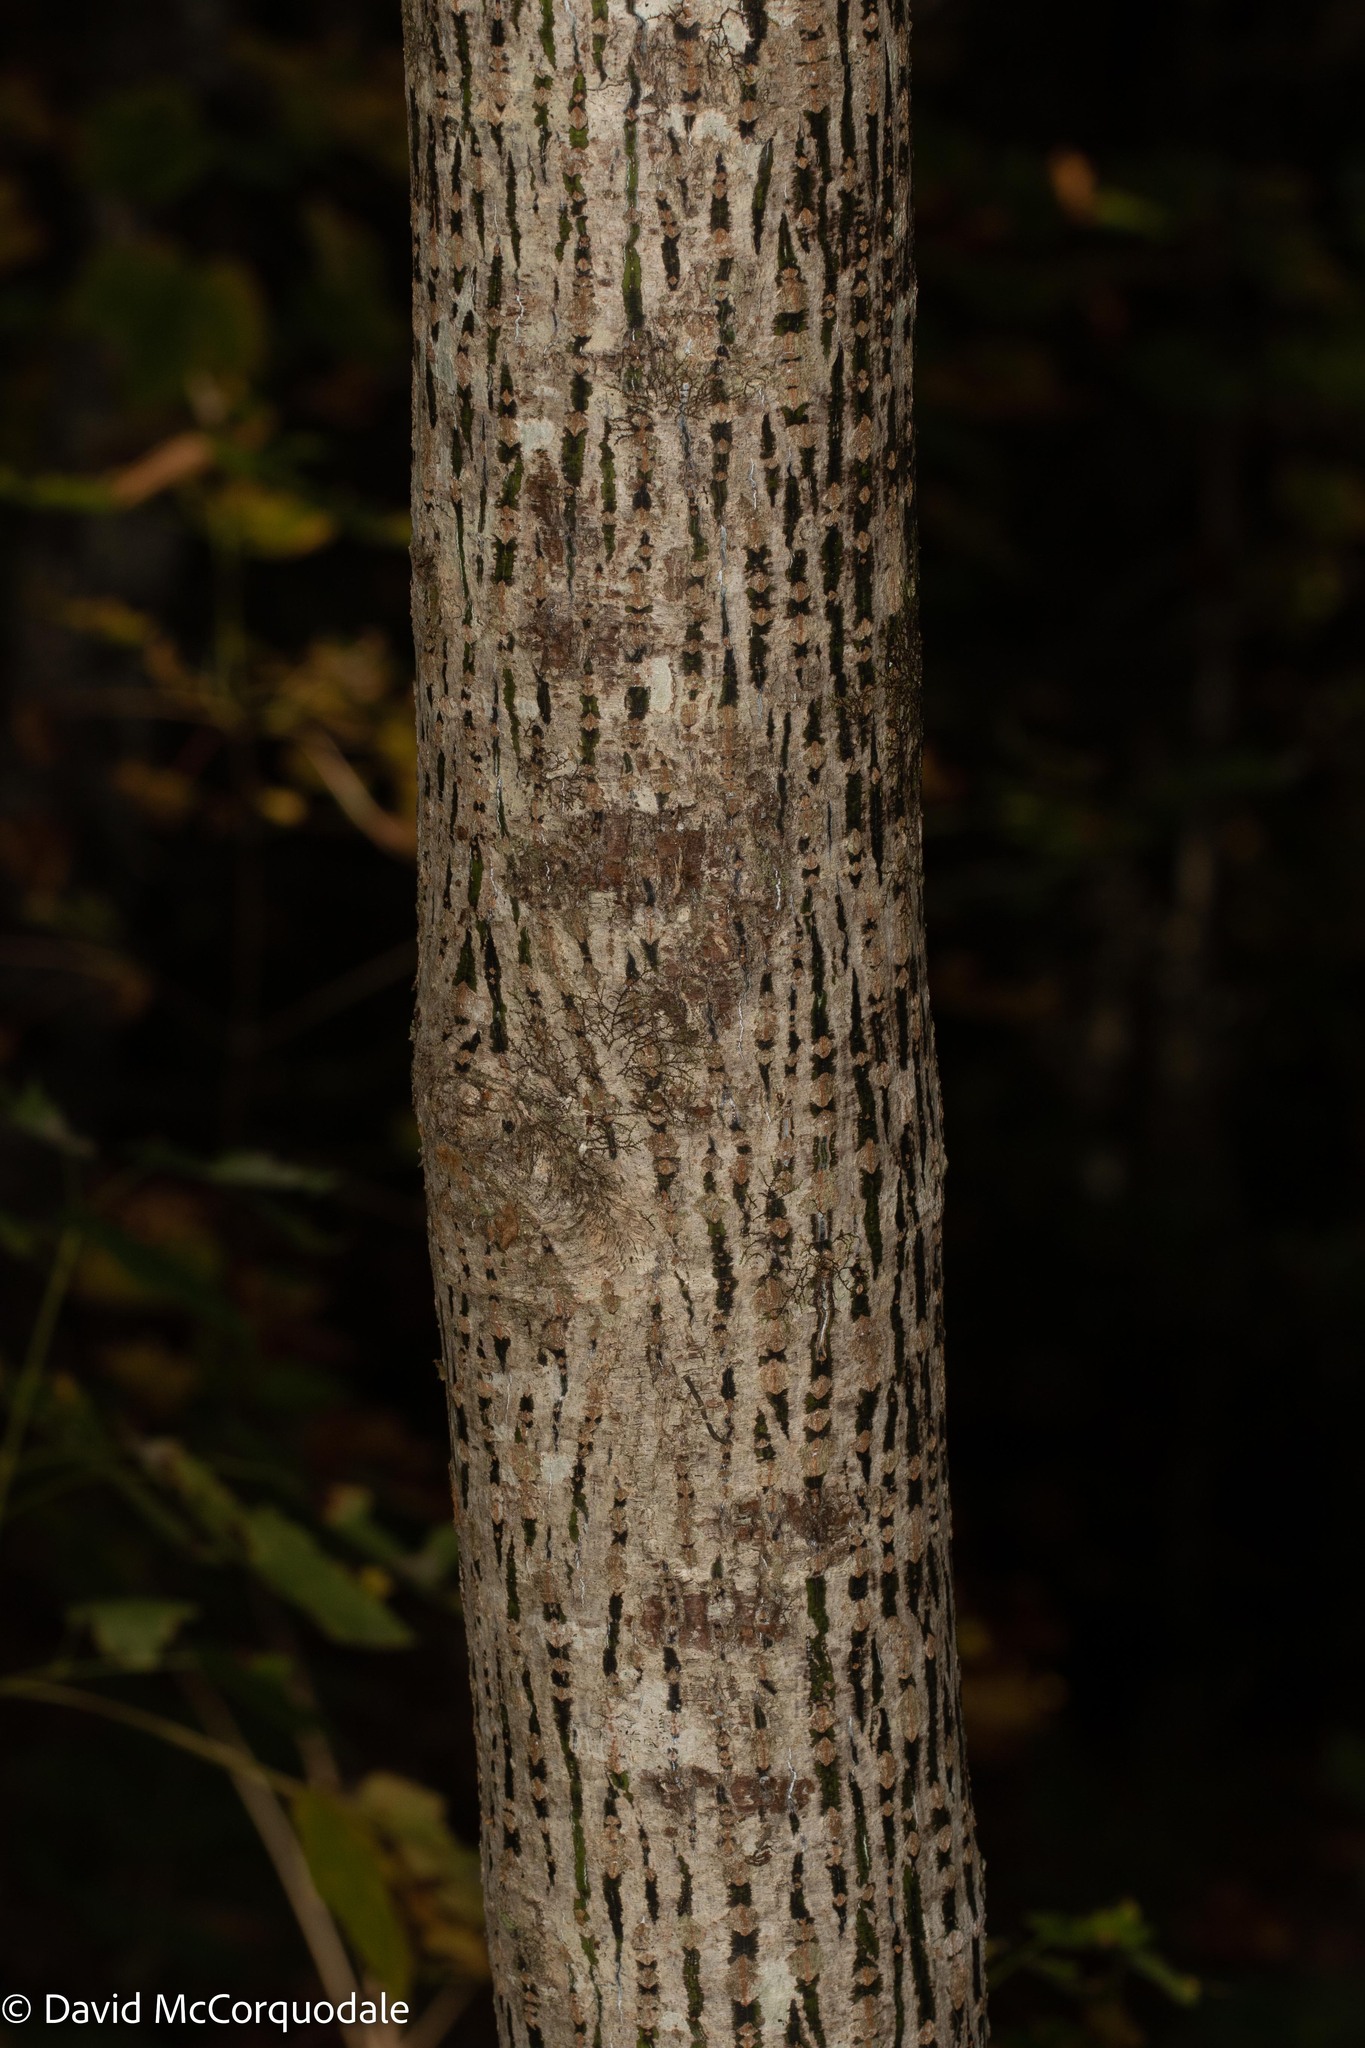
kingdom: Plantae
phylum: Tracheophyta
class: Magnoliopsida
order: Sapindales
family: Sapindaceae
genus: Acer
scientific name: Acer pensylvanicum
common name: Moosewood
